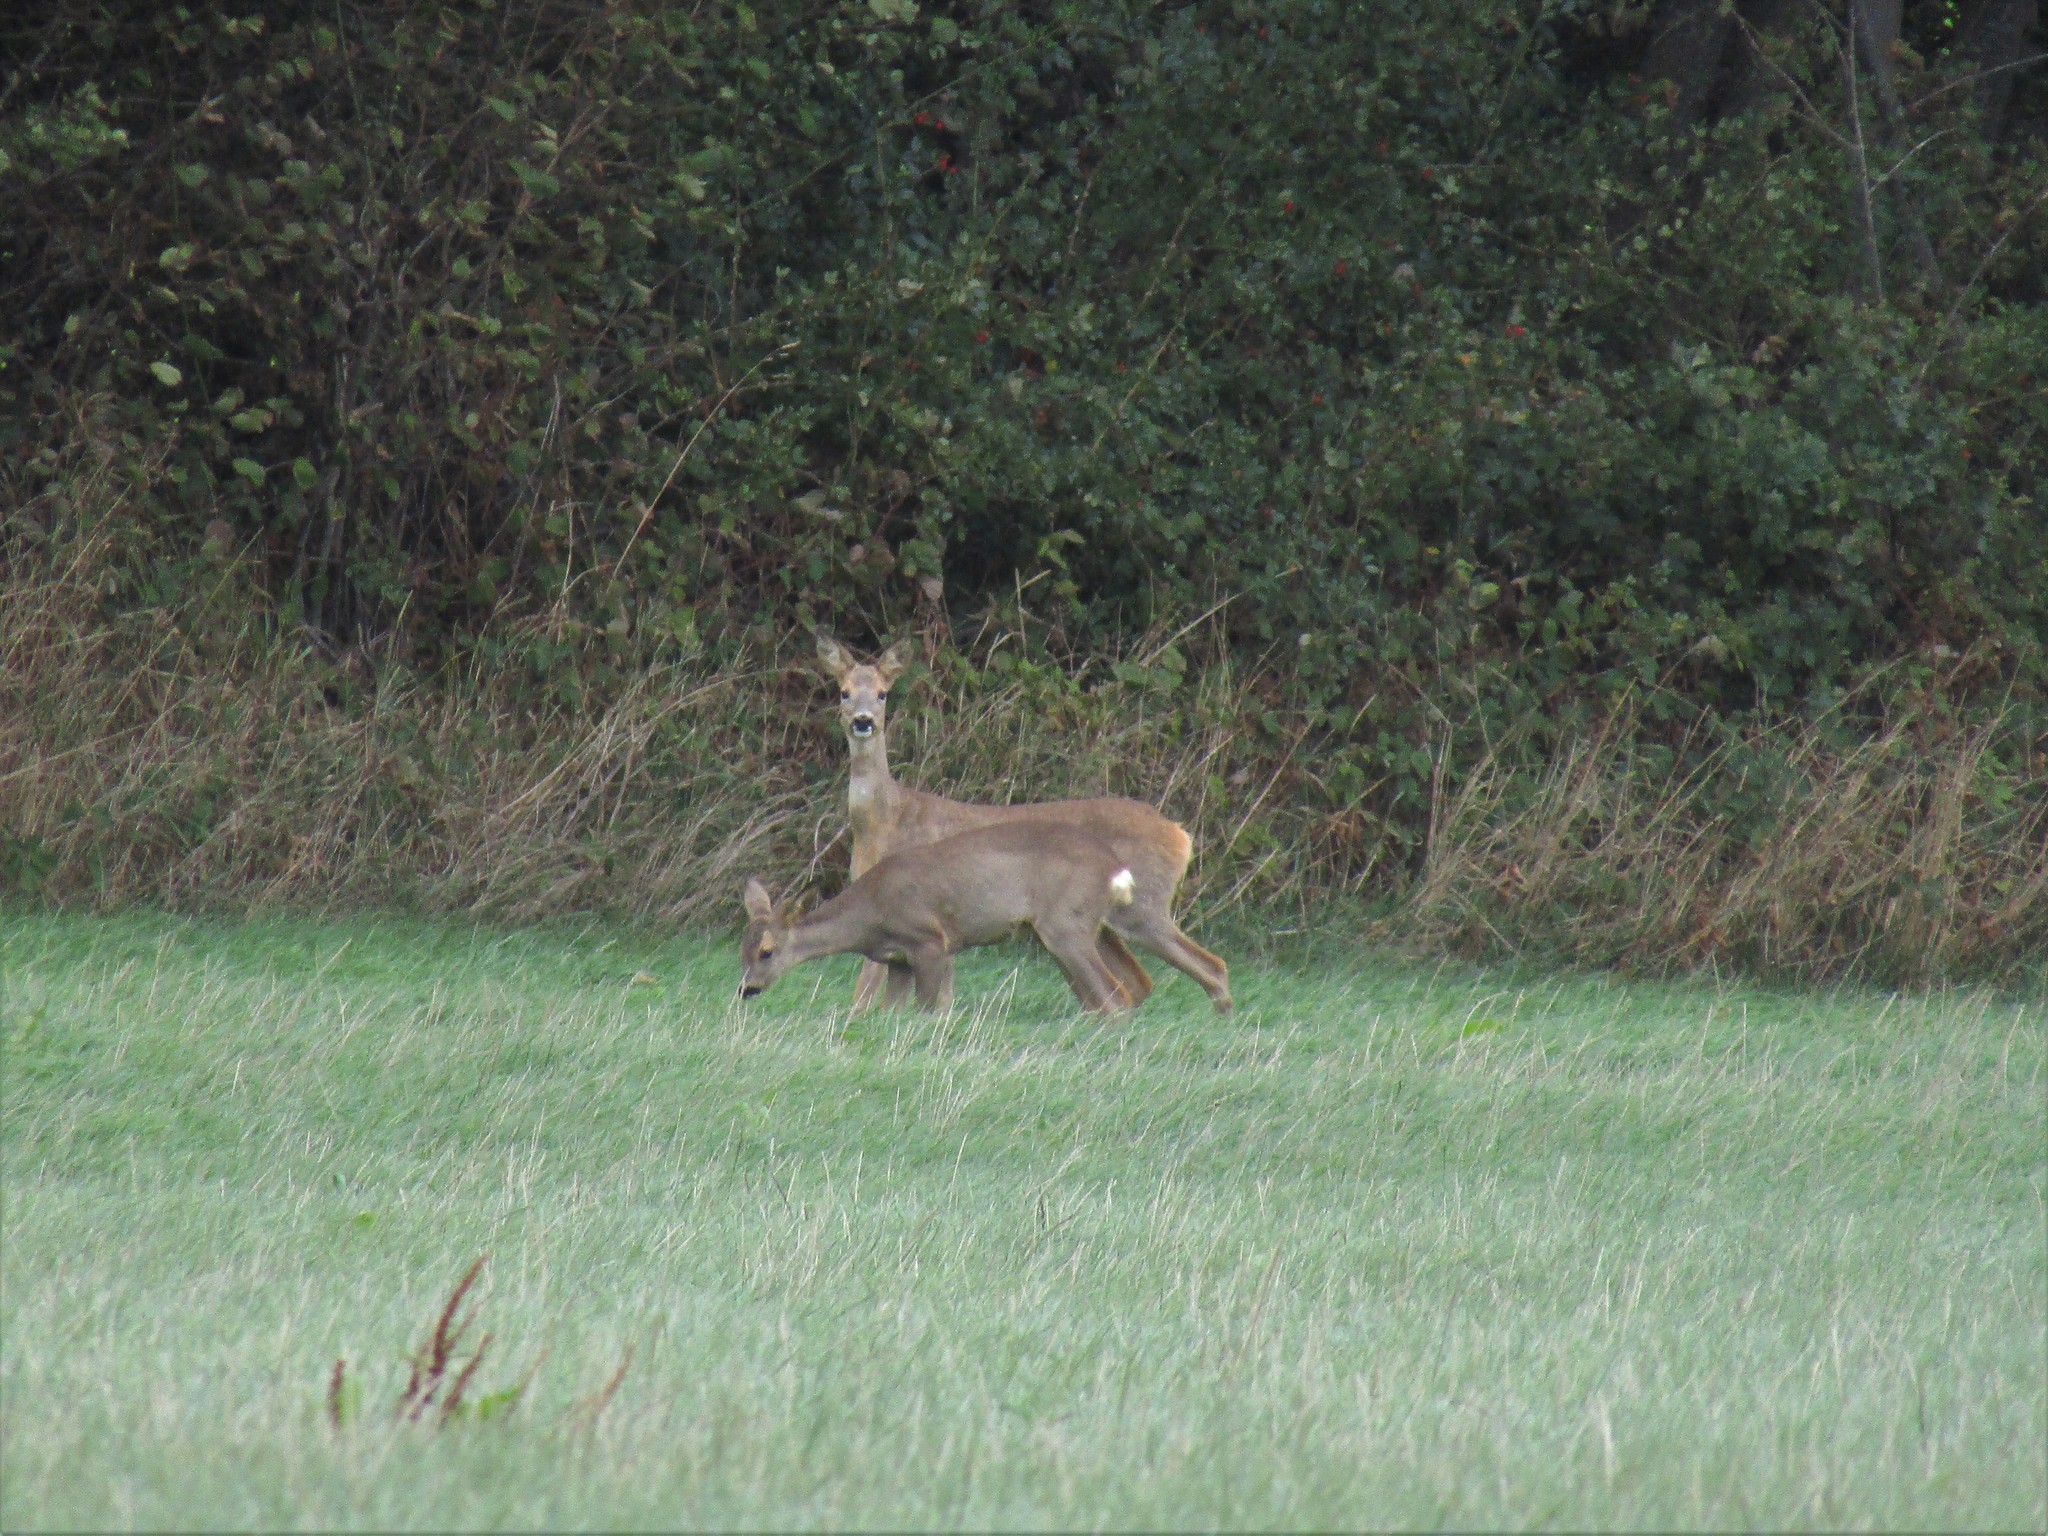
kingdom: Animalia
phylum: Chordata
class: Mammalia
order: Artiodactyla
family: Cervidae
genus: Capreolus
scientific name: Capreolus capreolus
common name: Western roe deer
